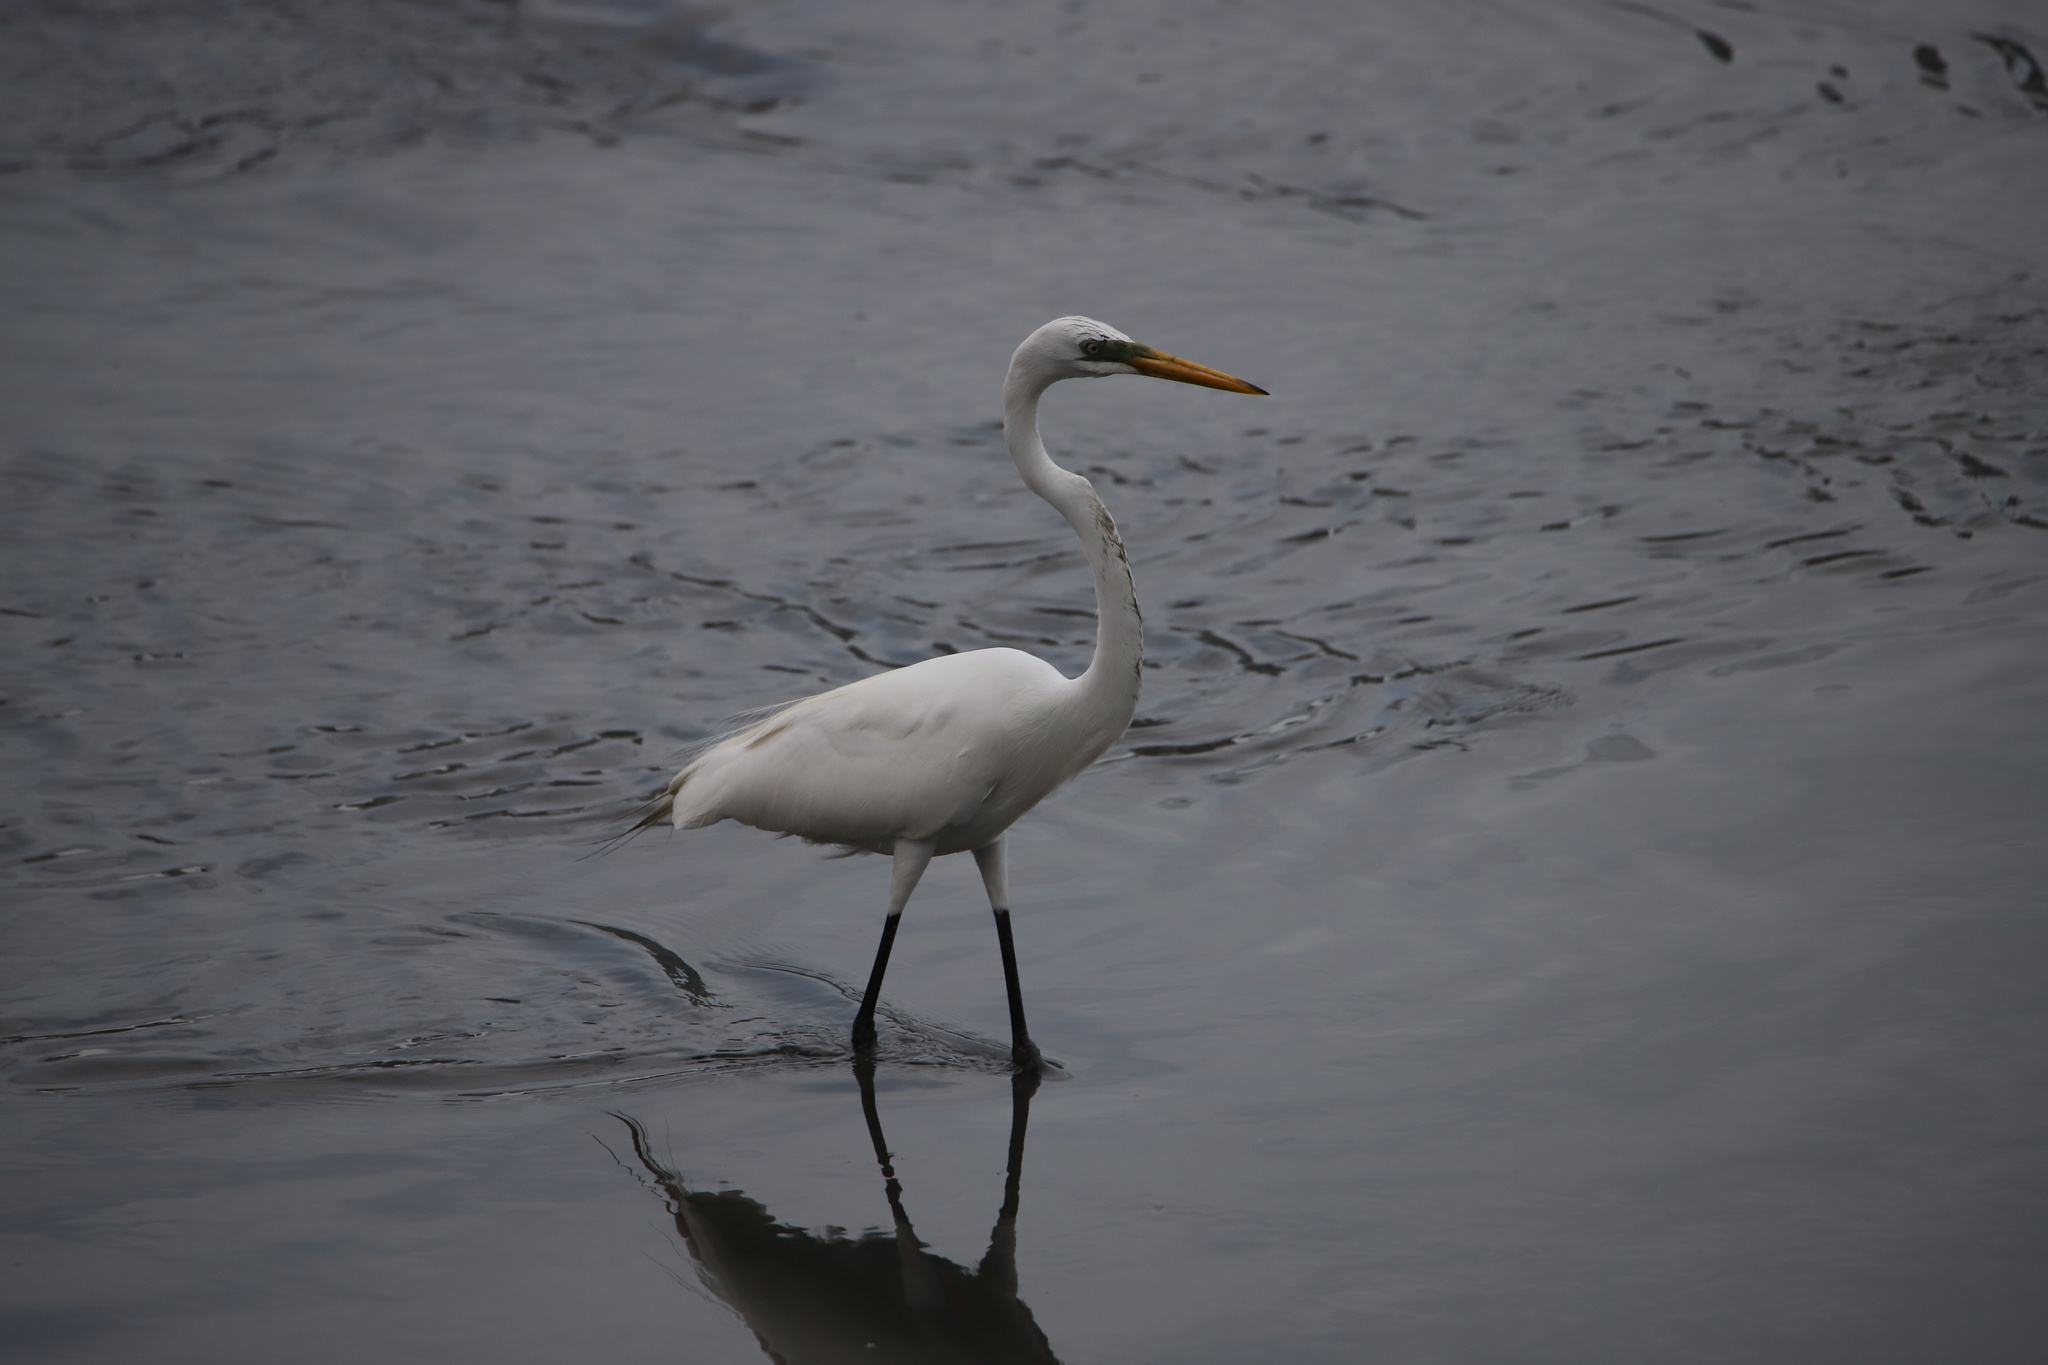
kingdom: Animalia
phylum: Chordata
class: Aves
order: Pelecaniformes
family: Ardeidae
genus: Ardea
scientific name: Ardea alba
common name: Great egret
